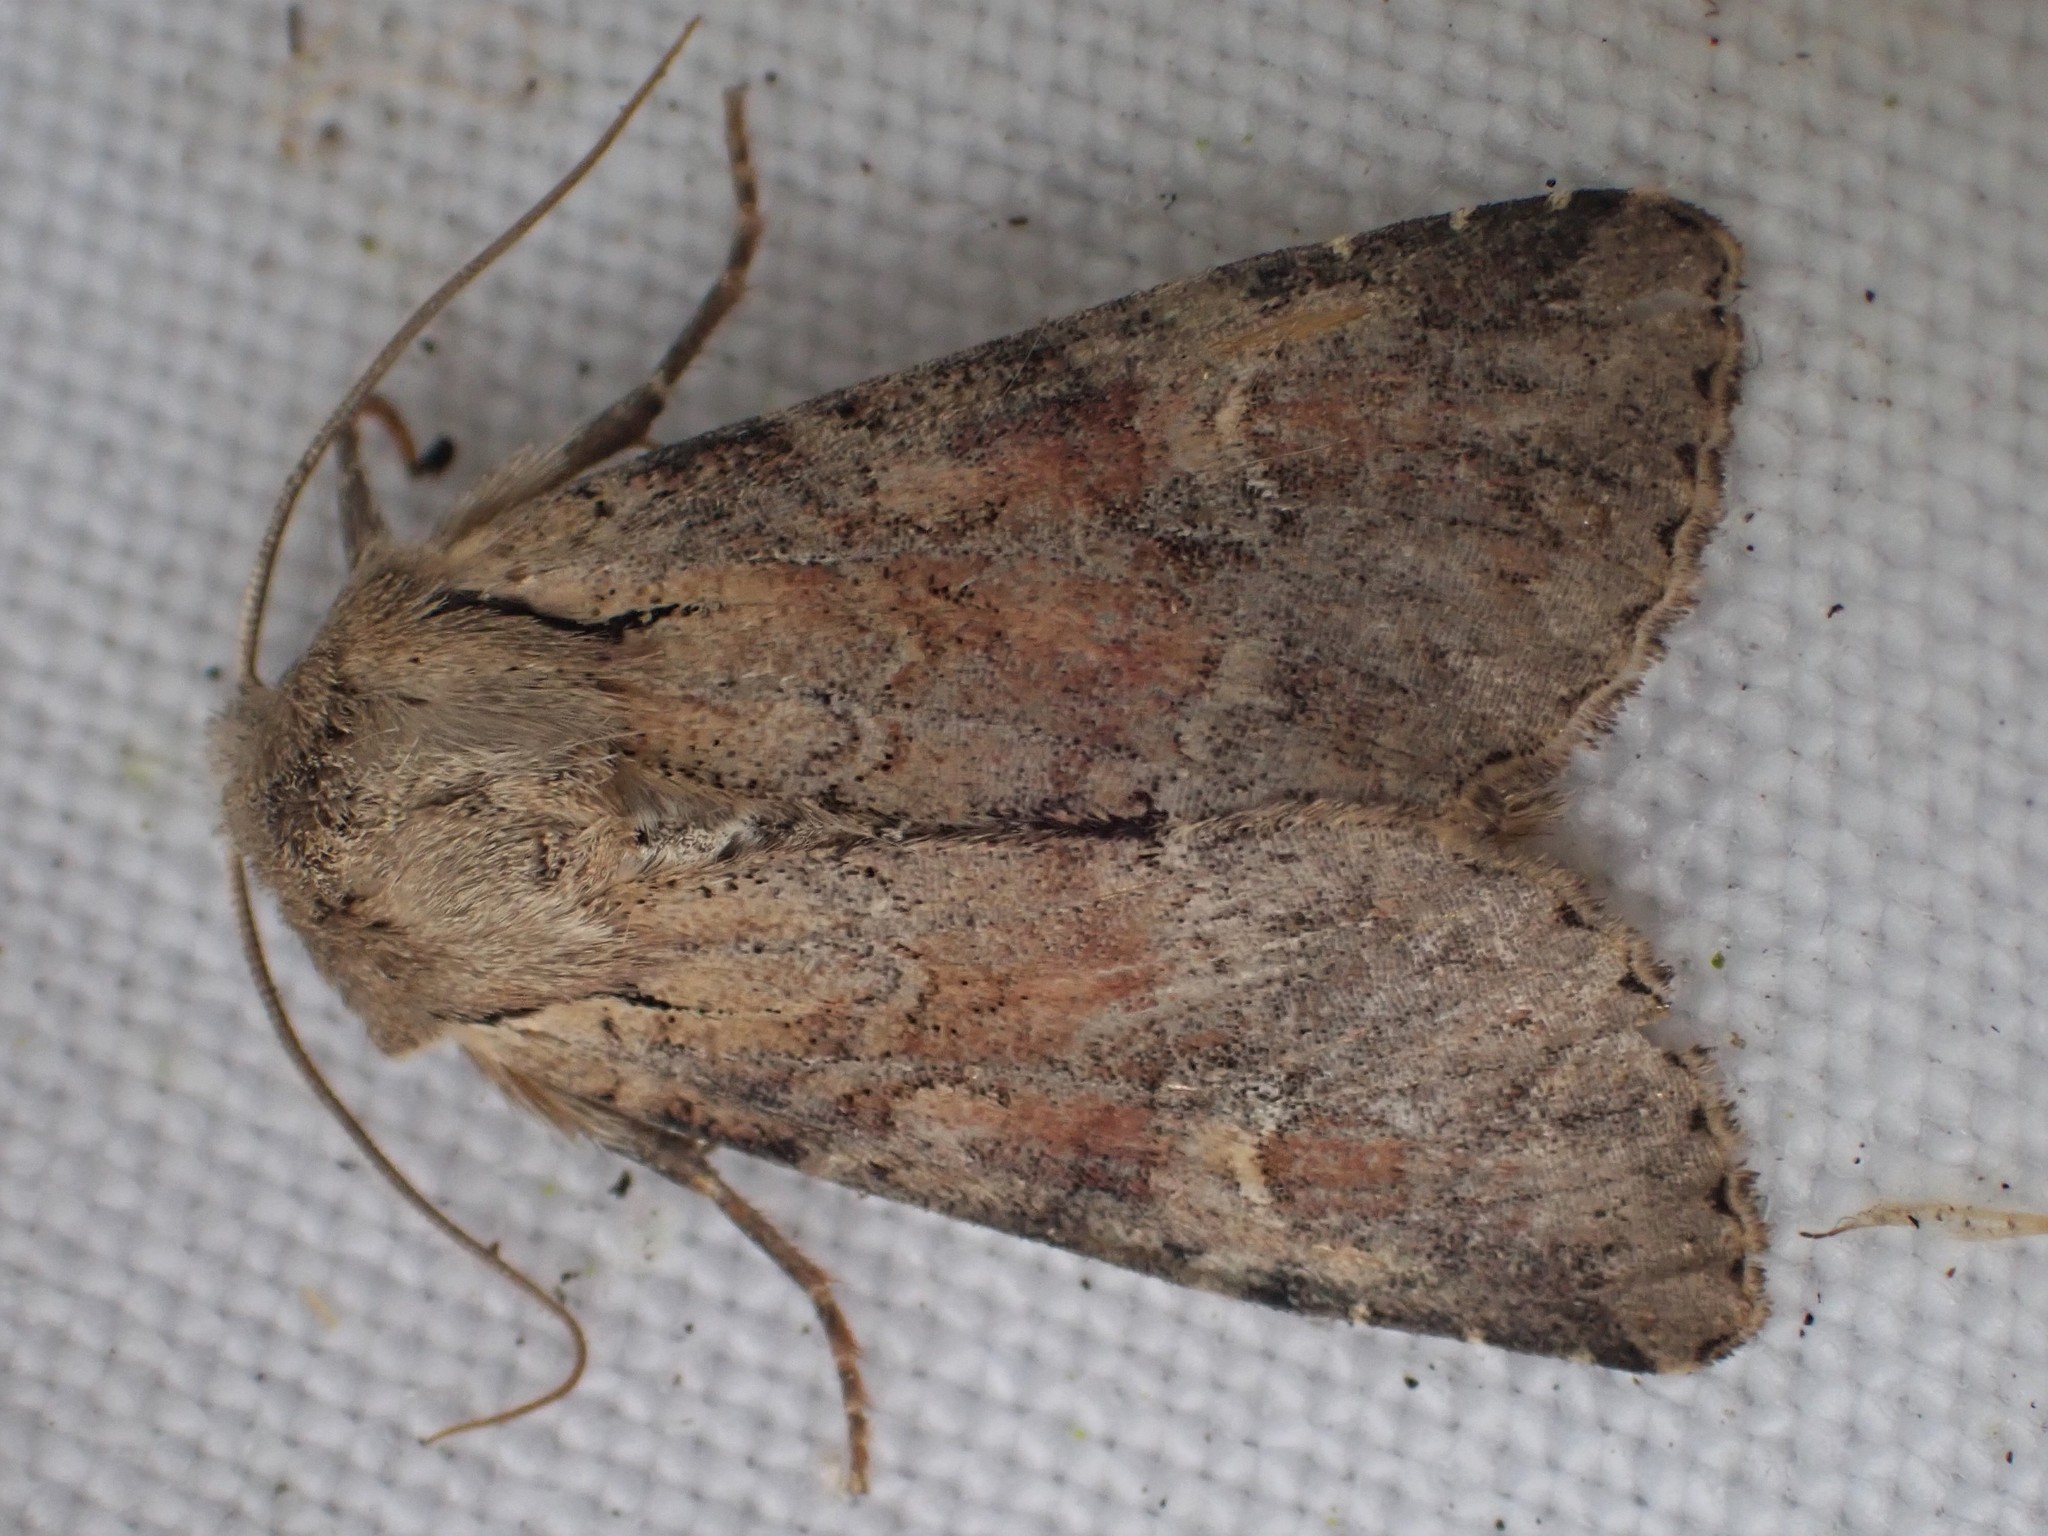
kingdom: Animalia
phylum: Arthropoda
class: Insecta
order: Lepidoptera
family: Noctuidae
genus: Apamea
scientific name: Apamea sordens
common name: Rustic shoulder-knot
